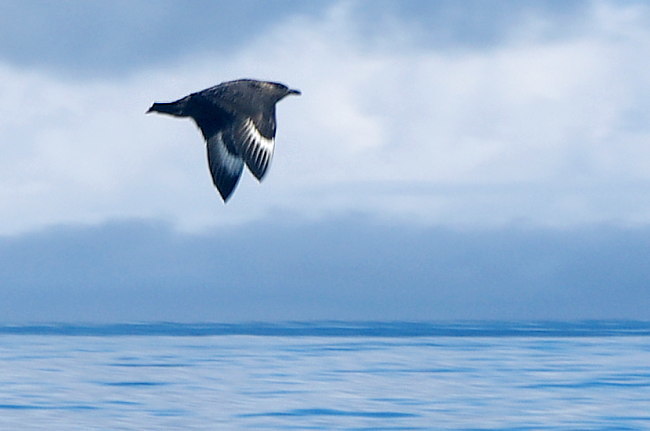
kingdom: Animalia
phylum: Chordata
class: Aves
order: Charadriiformes
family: Stercorariidae
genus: Stercorarius
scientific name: Stercorarius skua
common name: Great skua
